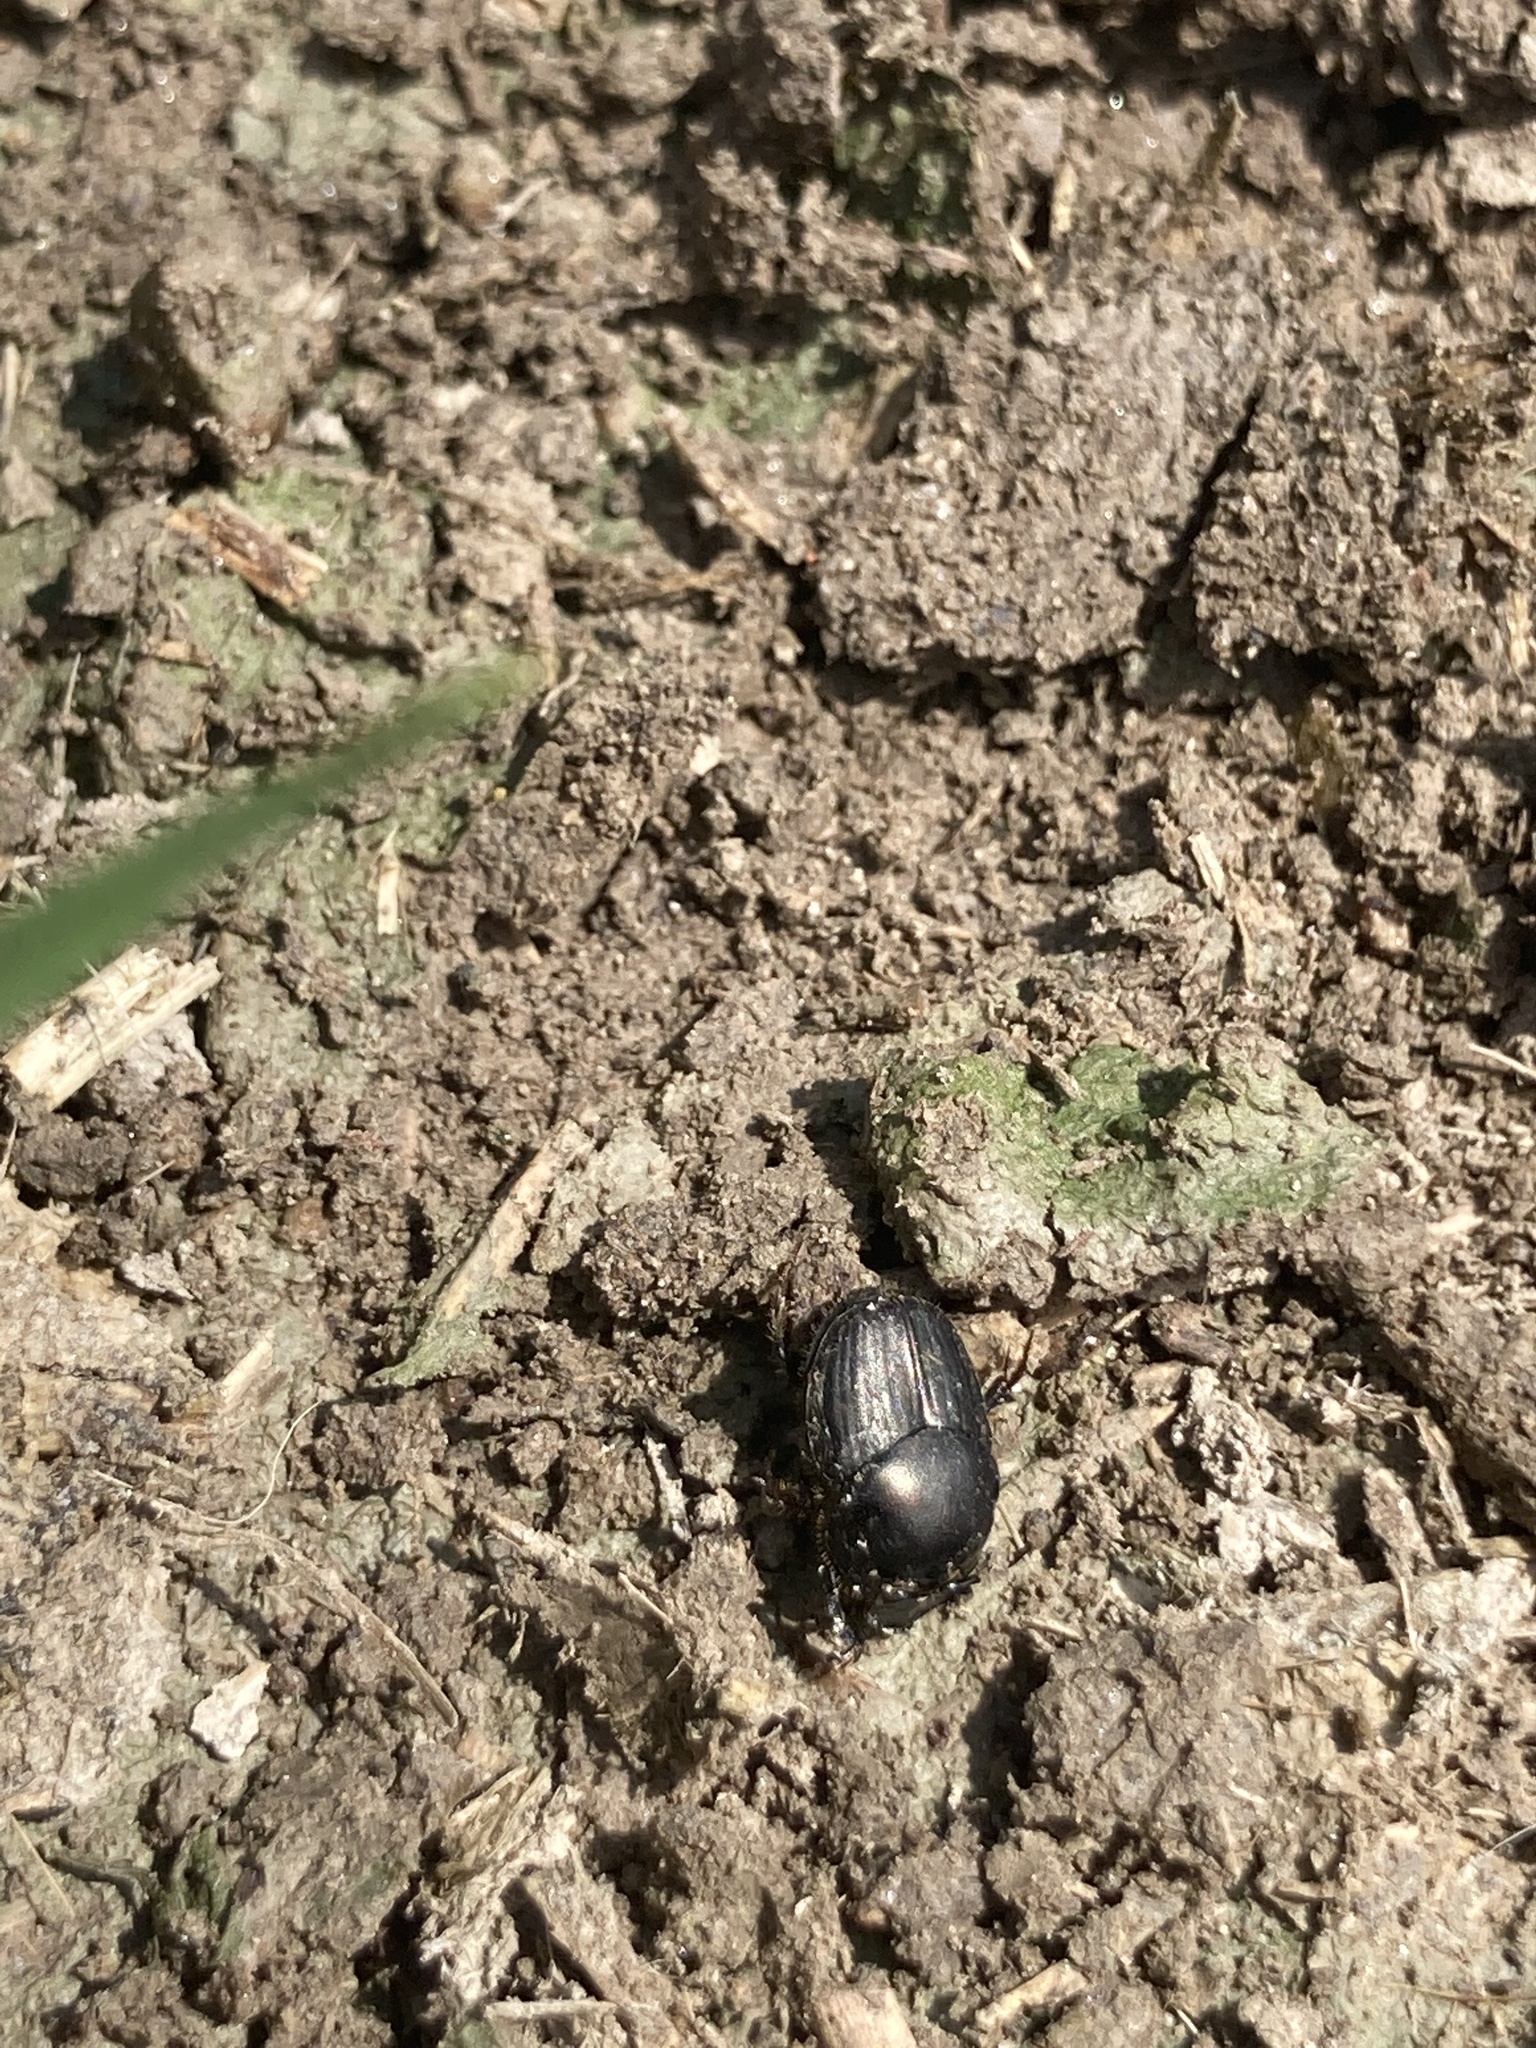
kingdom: Animalia
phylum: Arthropoda
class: Insecta
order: Coleoptera
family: Scarabaeidae
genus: Onthophagus
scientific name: Onthophagus hecate
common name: Scooped scarab
